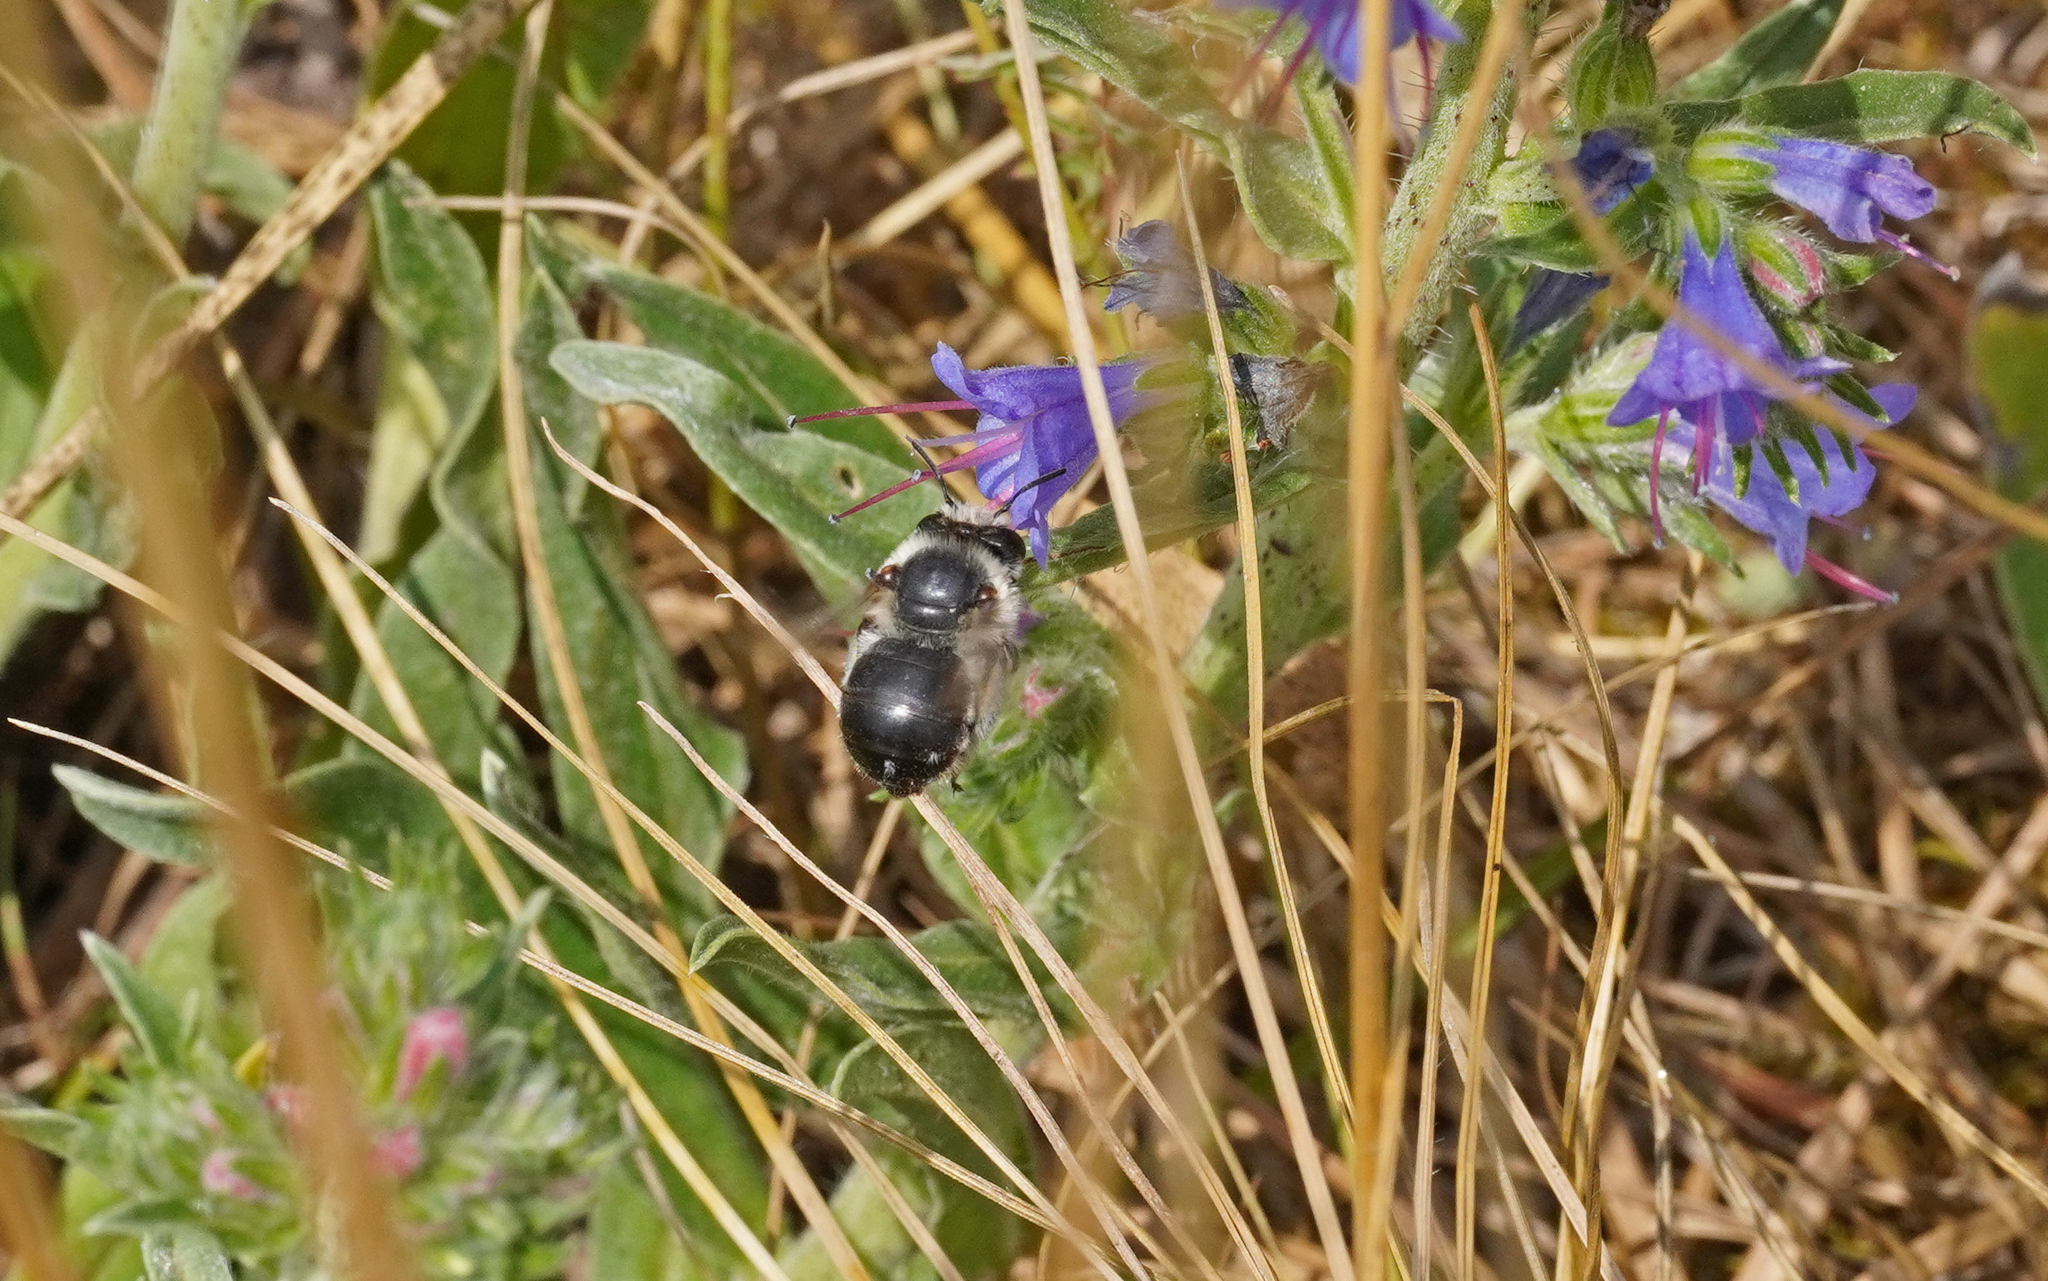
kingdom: Animalia
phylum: Arthropoda
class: Insecta
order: Hymenoptera
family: Apidae
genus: Anthophora
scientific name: Anthophora aestivalis
